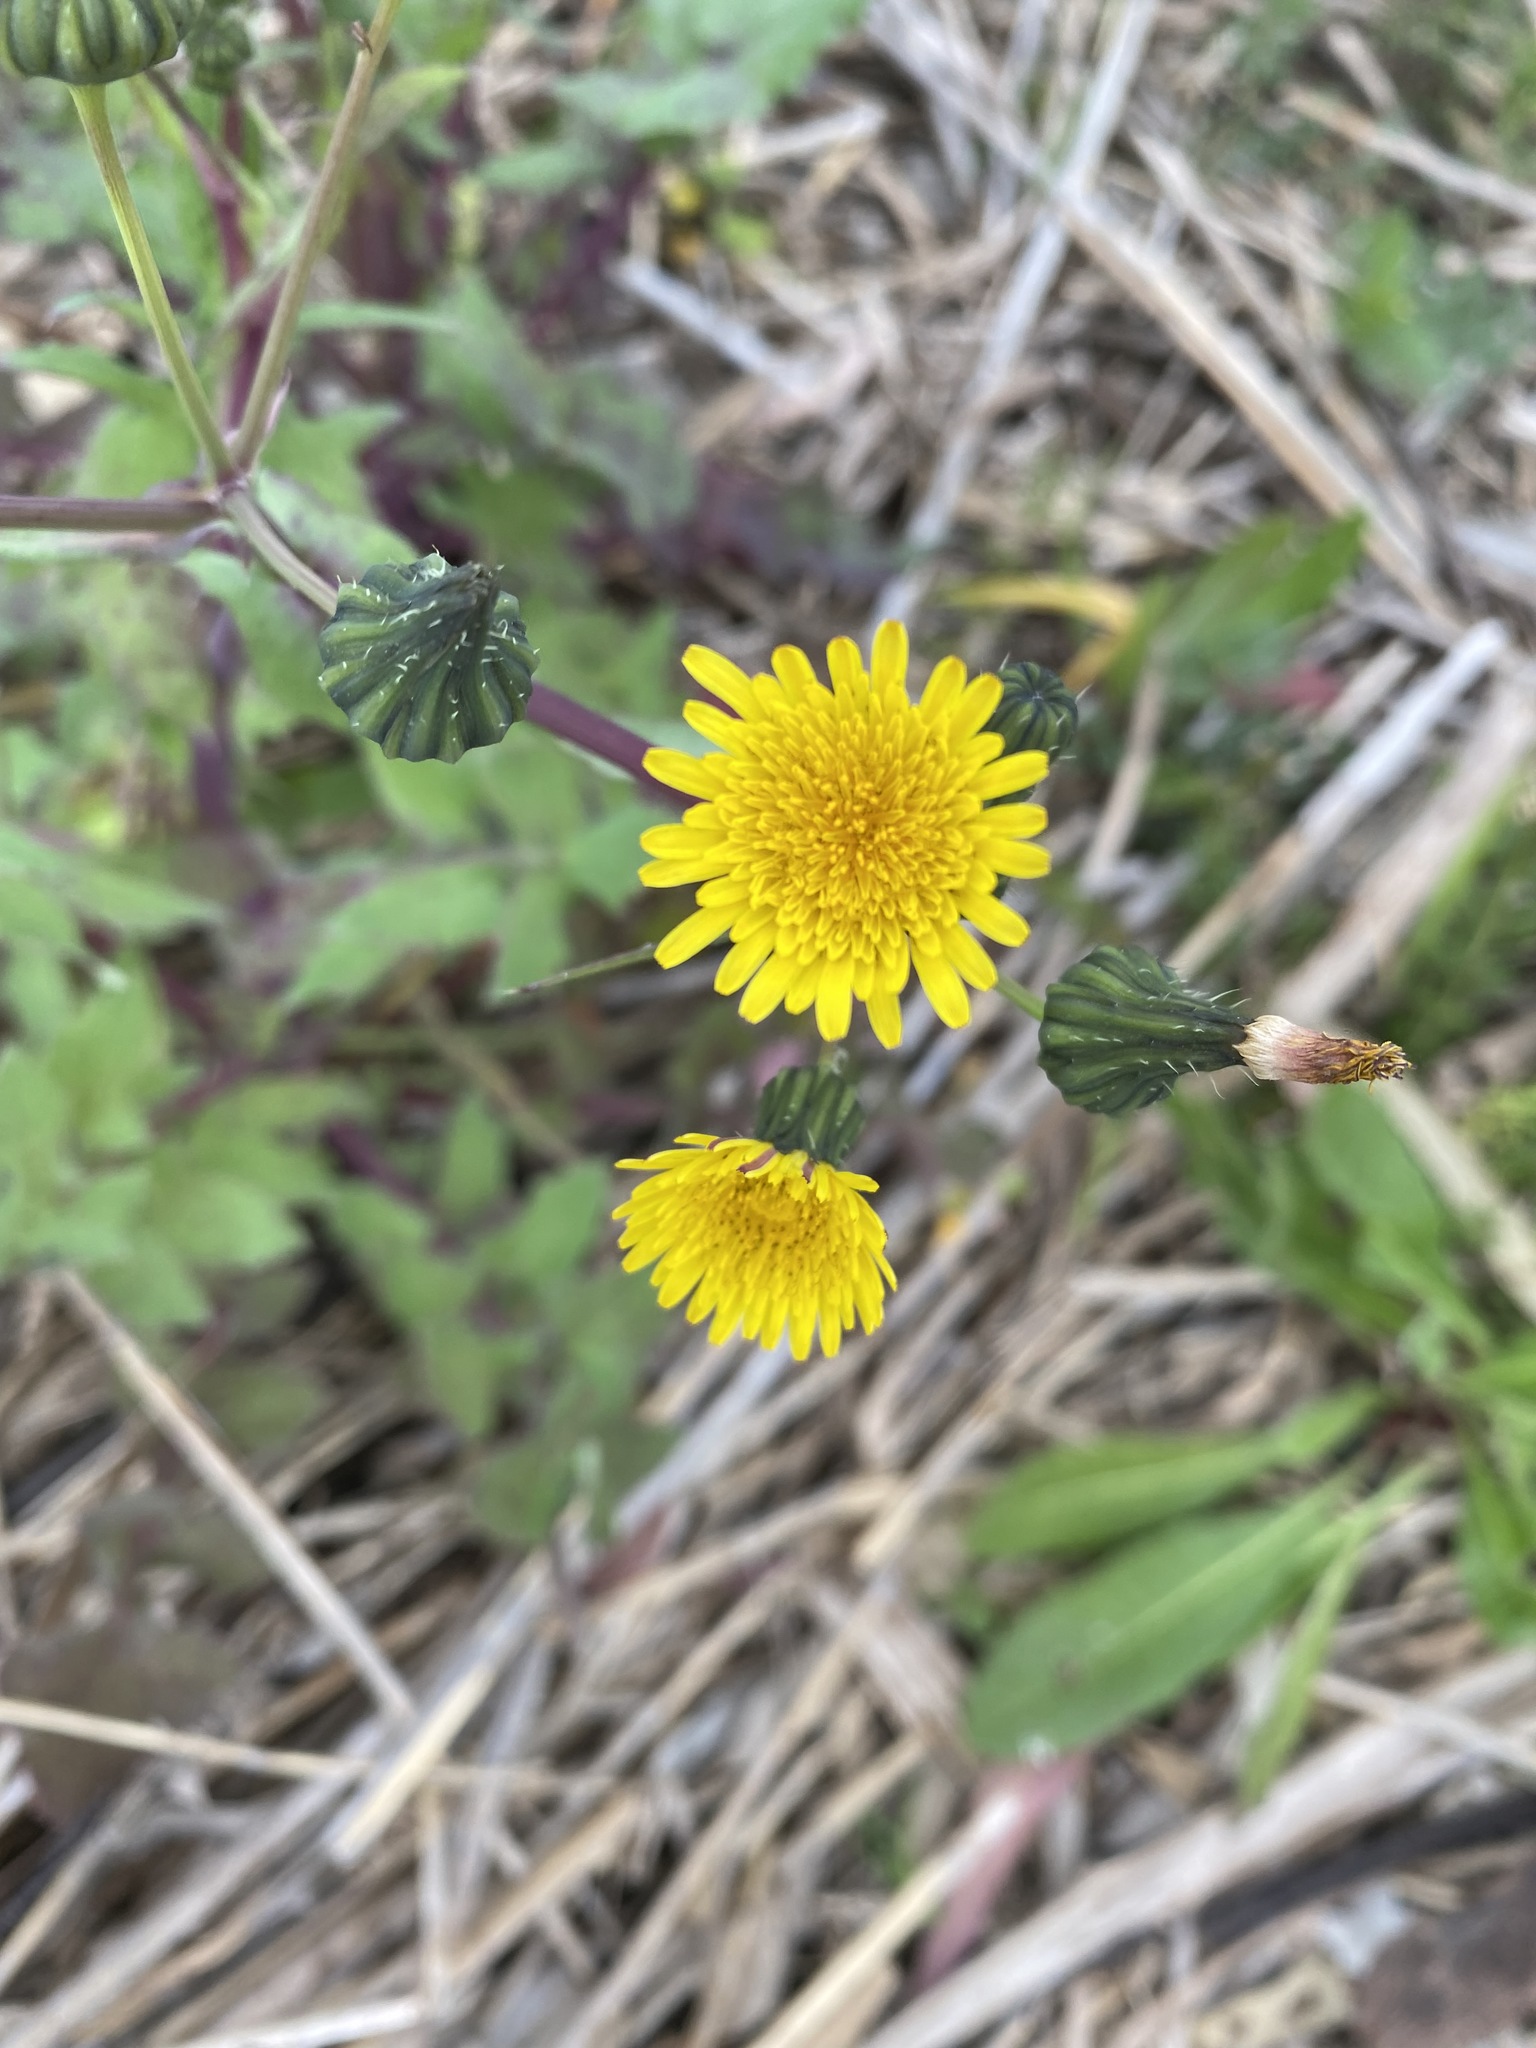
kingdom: Plantae
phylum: Tracheophyta
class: Magnoliopsida
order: Asterales
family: Asteraceae
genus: Sonchus
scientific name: Sonchus oleraceus
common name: Common sowthistle
